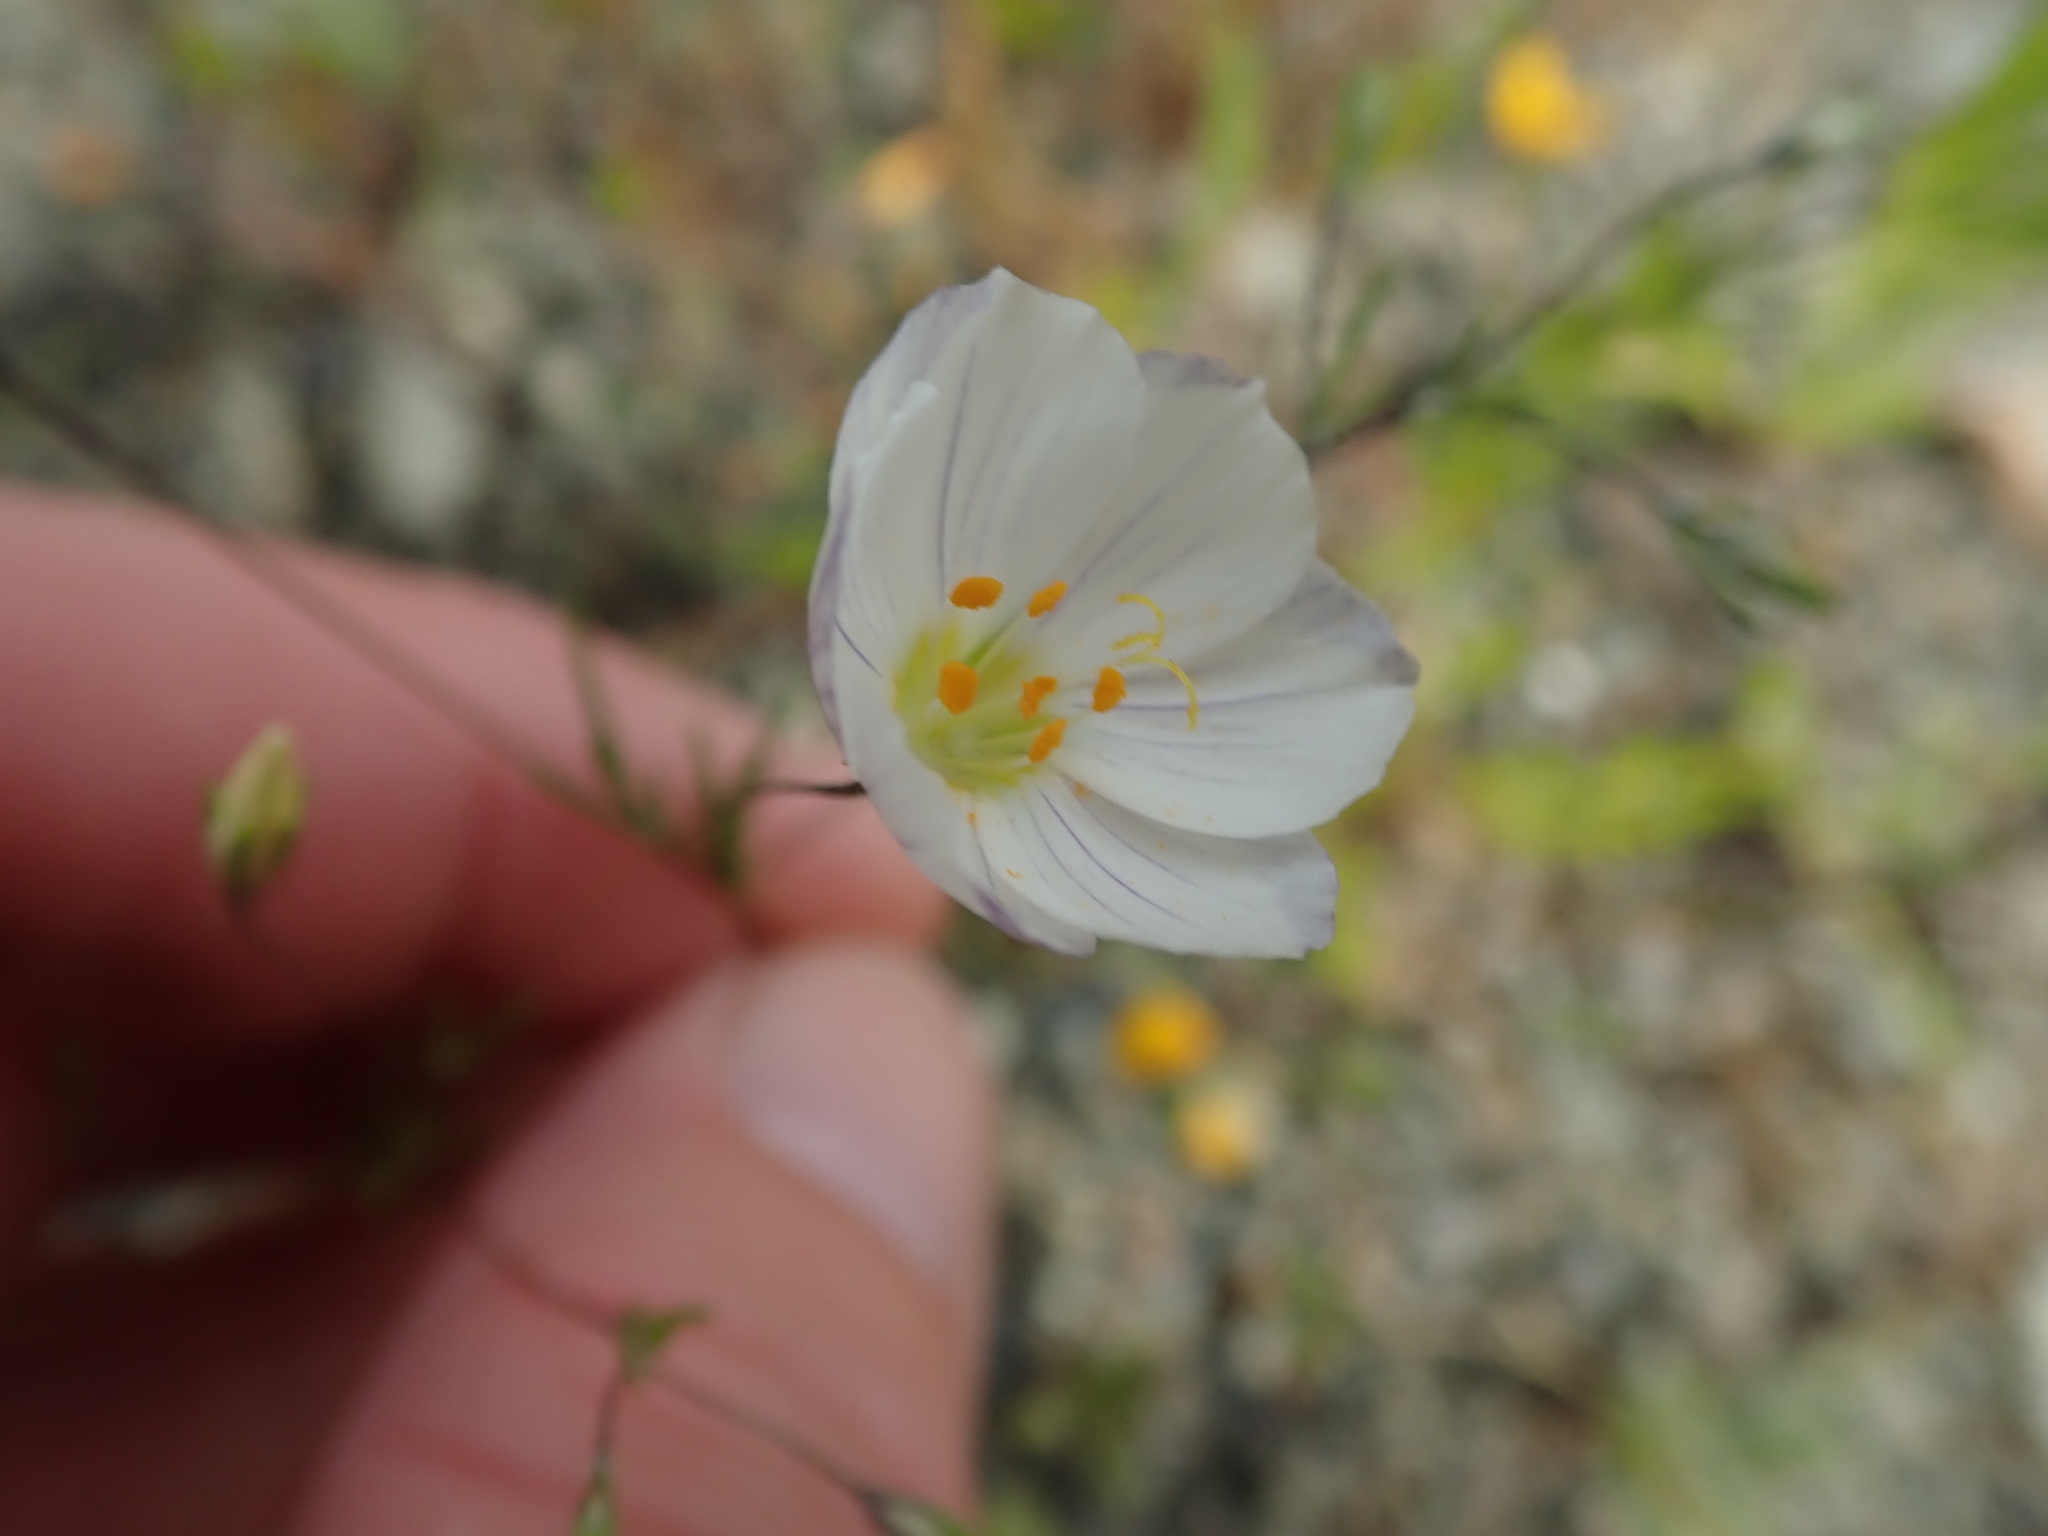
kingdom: Plantae
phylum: Tracheophyta
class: Magnoliopsida
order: Ericales
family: Polemoniaceae
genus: Leptosiphon
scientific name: Leptosiphon liniflorus
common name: Narrowflower flaxflower
